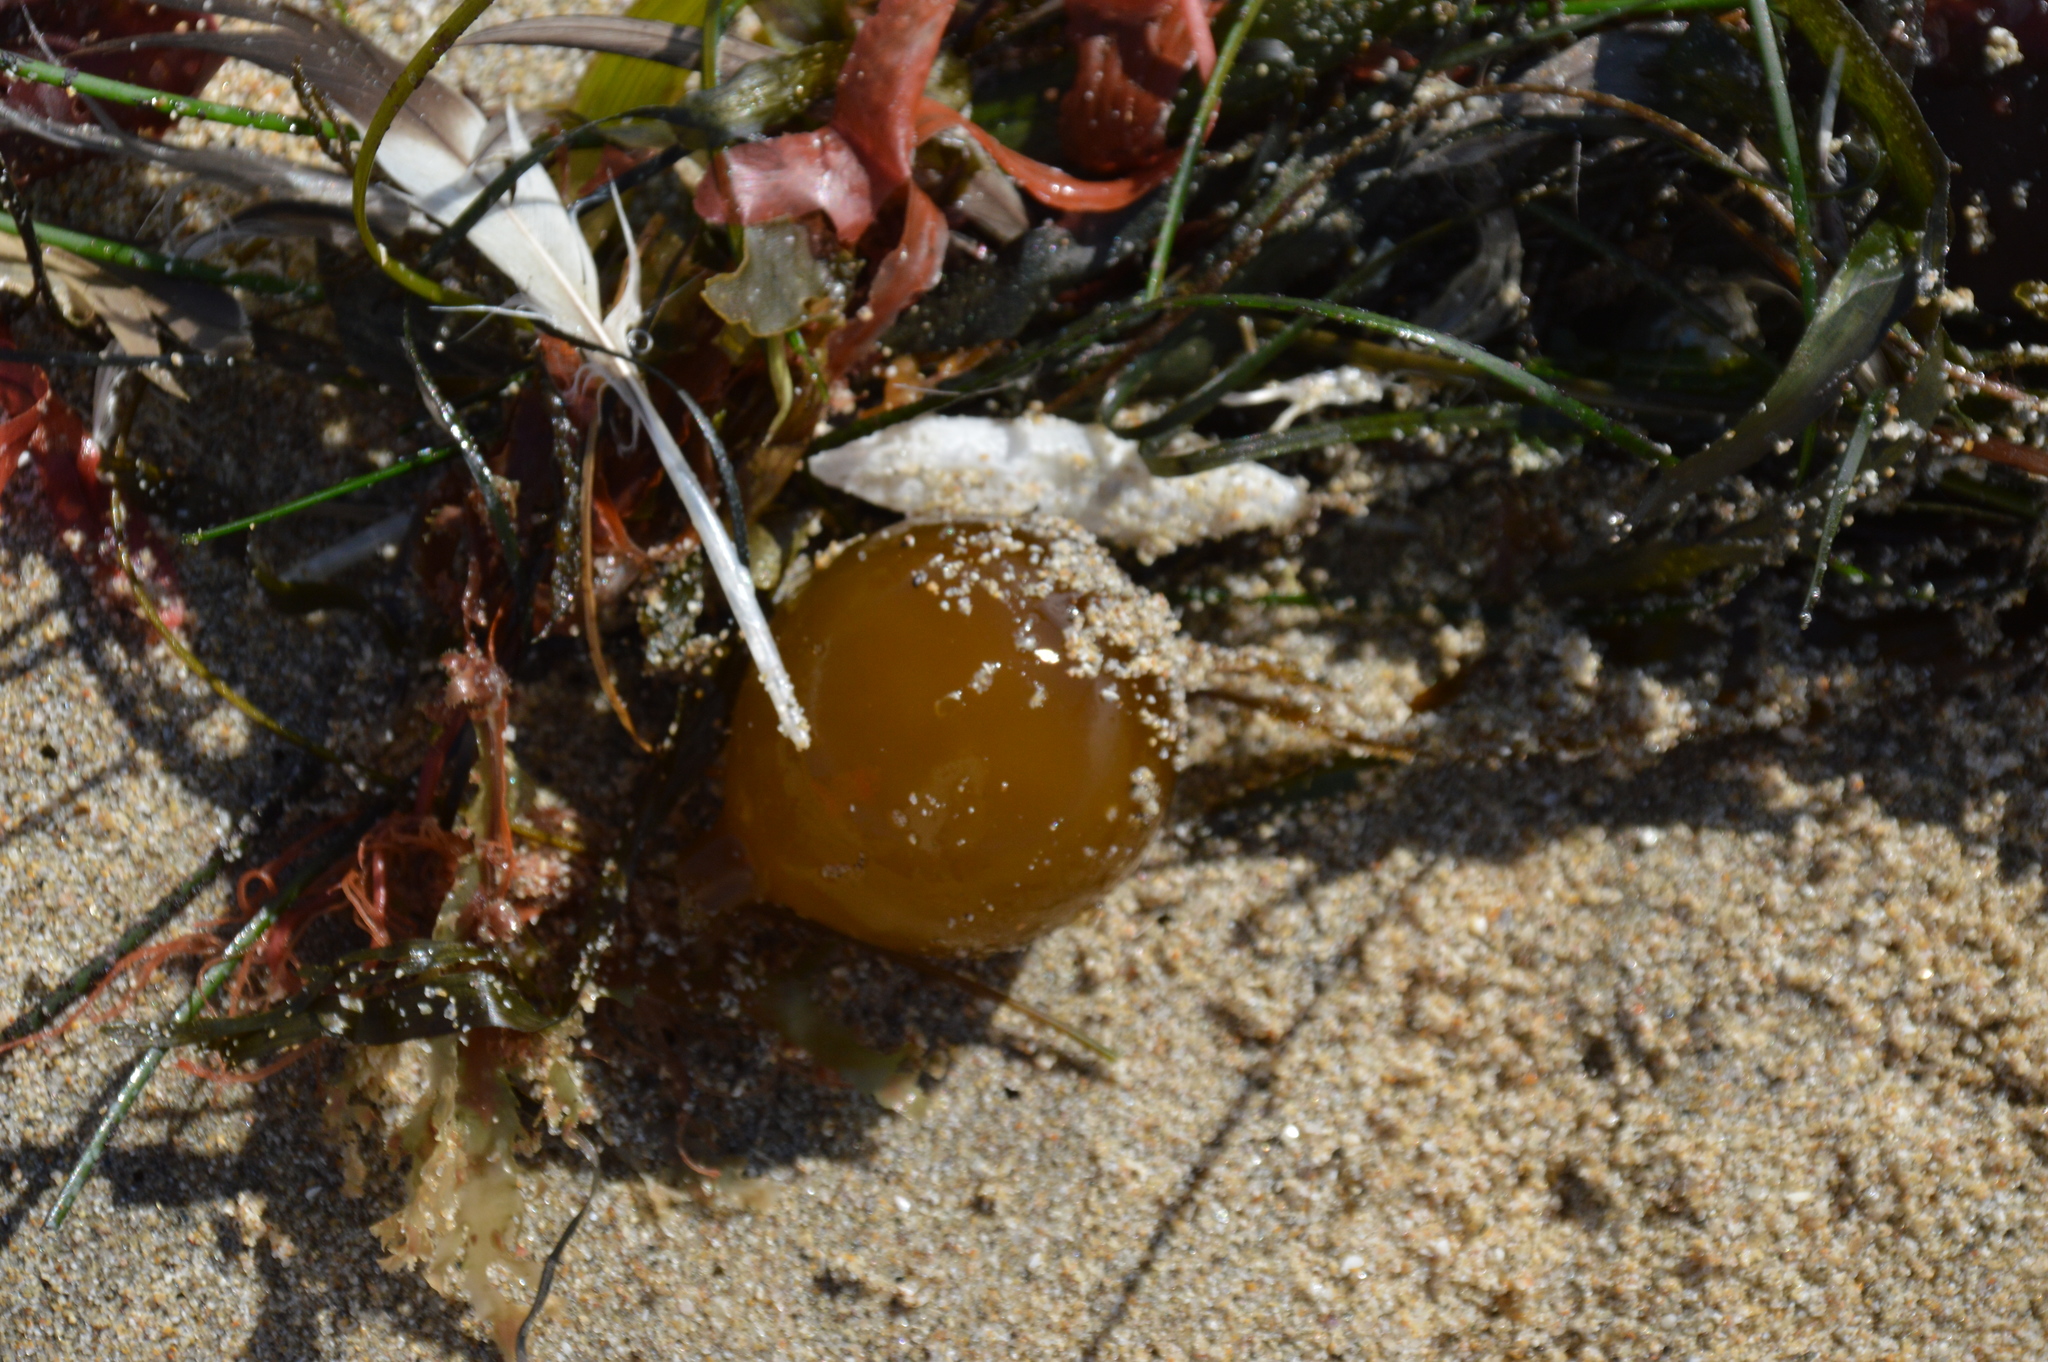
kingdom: Chromista
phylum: Ochrophyta
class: Phaeophyceae
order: Laminariales
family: Laminariaceae
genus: Nereocystis
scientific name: Nereocystis luetkeana
